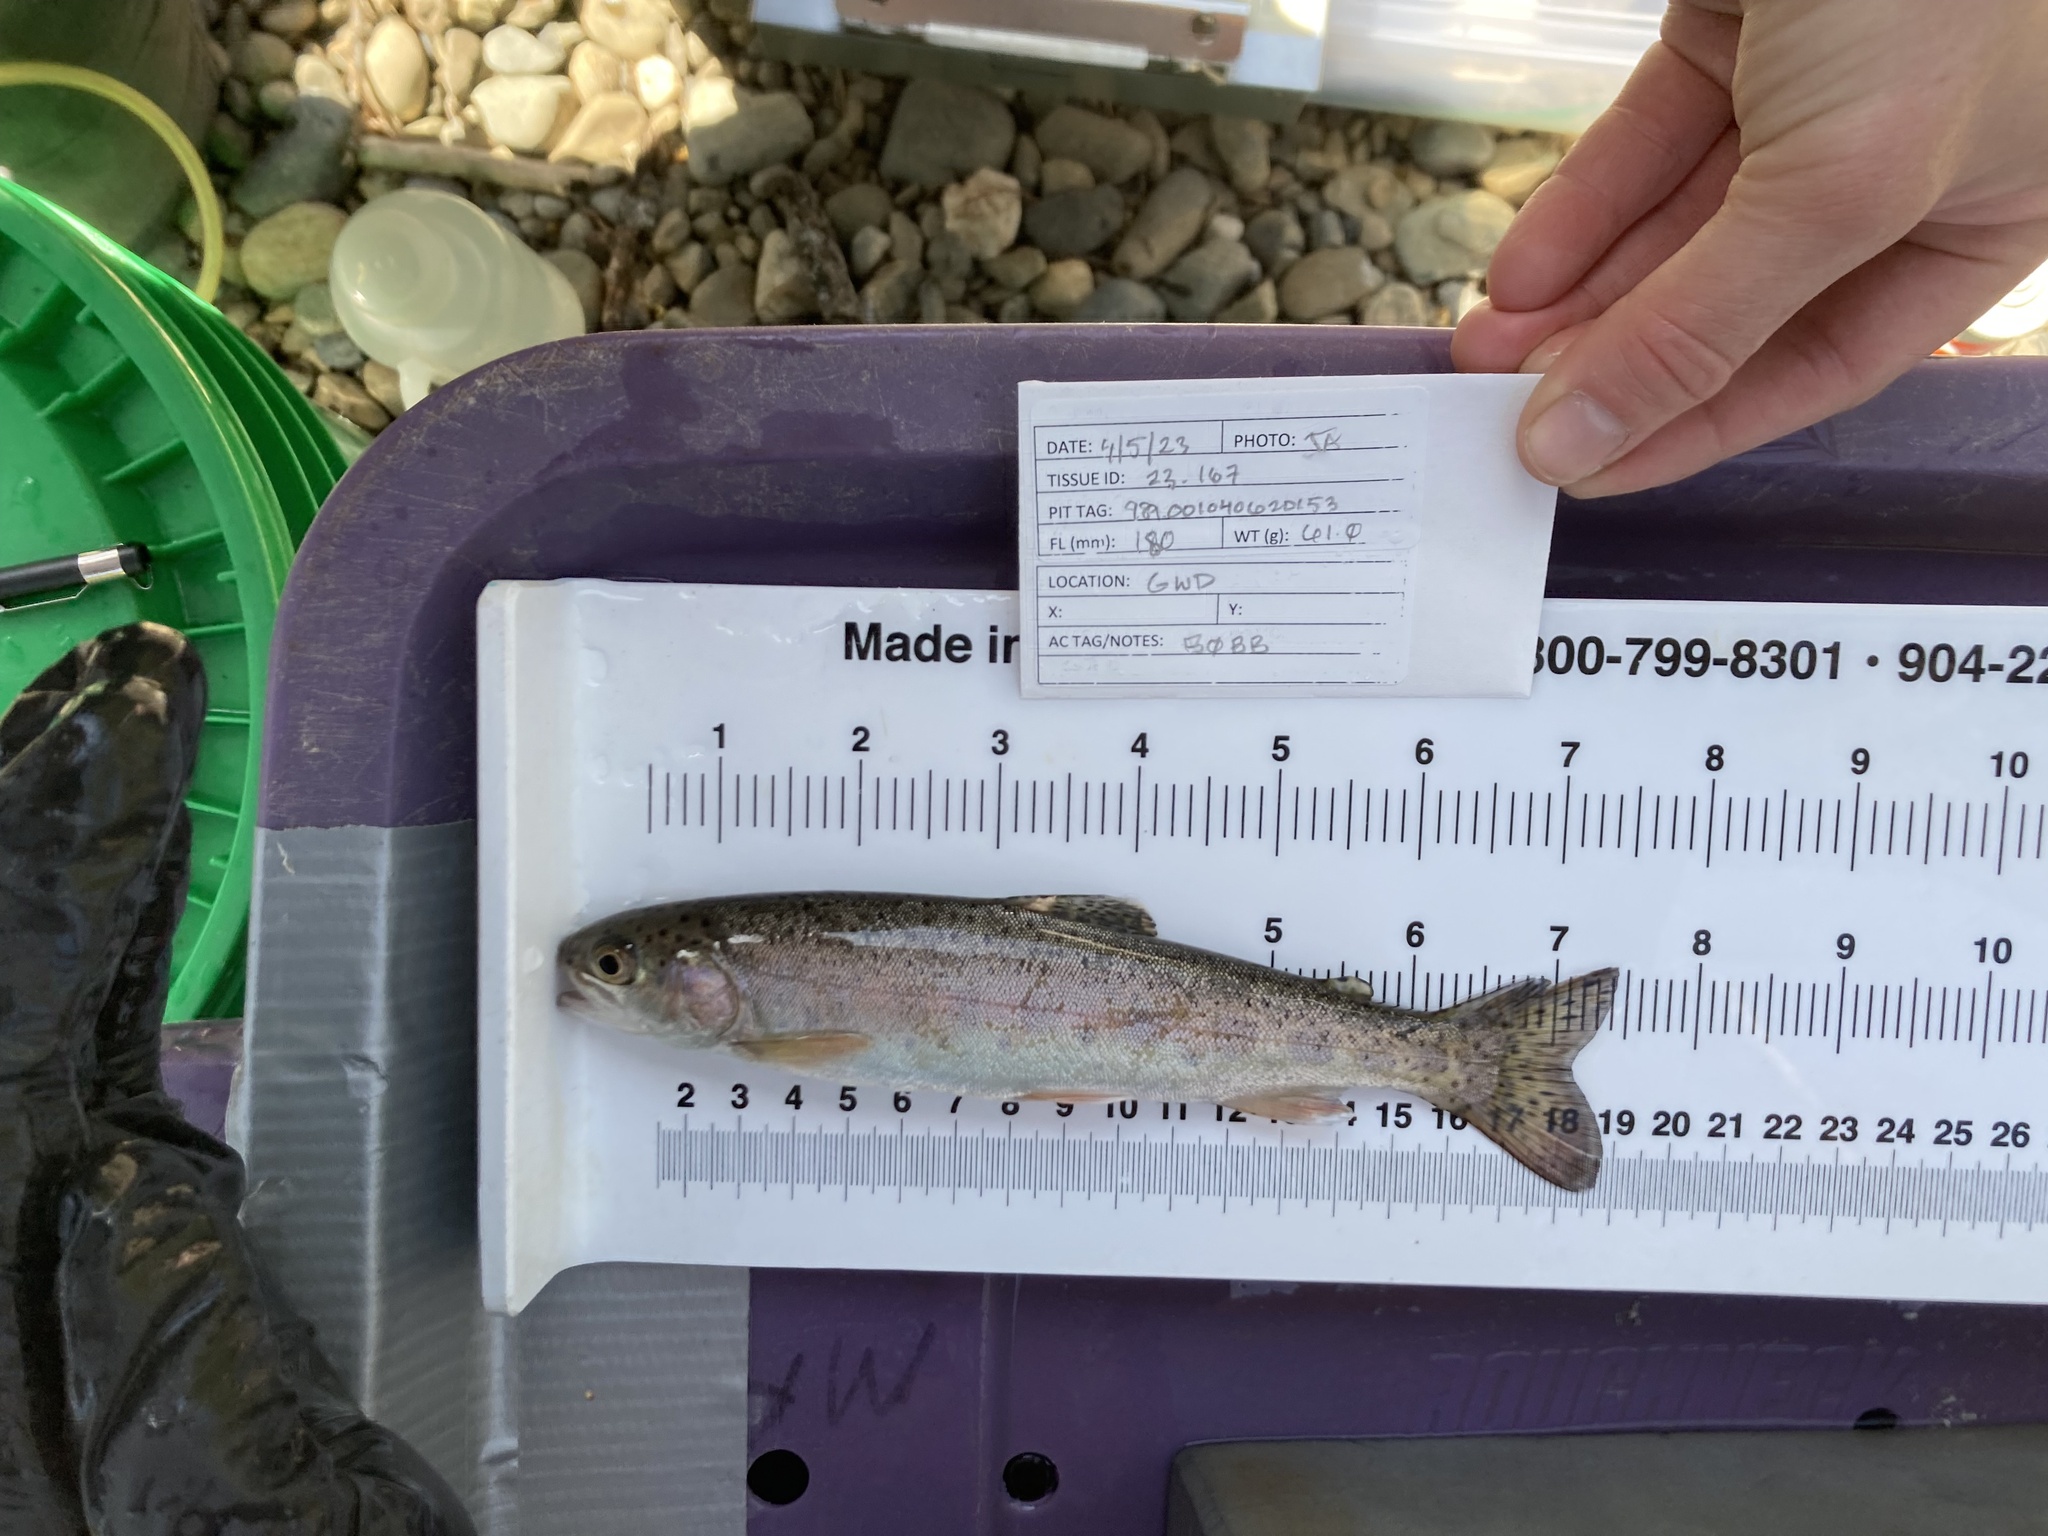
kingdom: Animalia
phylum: Chordata
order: Salmoniformes
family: Salmonidae
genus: Oncorhynchus
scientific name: Oncorhynchus mykiss
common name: Rainbow trout
